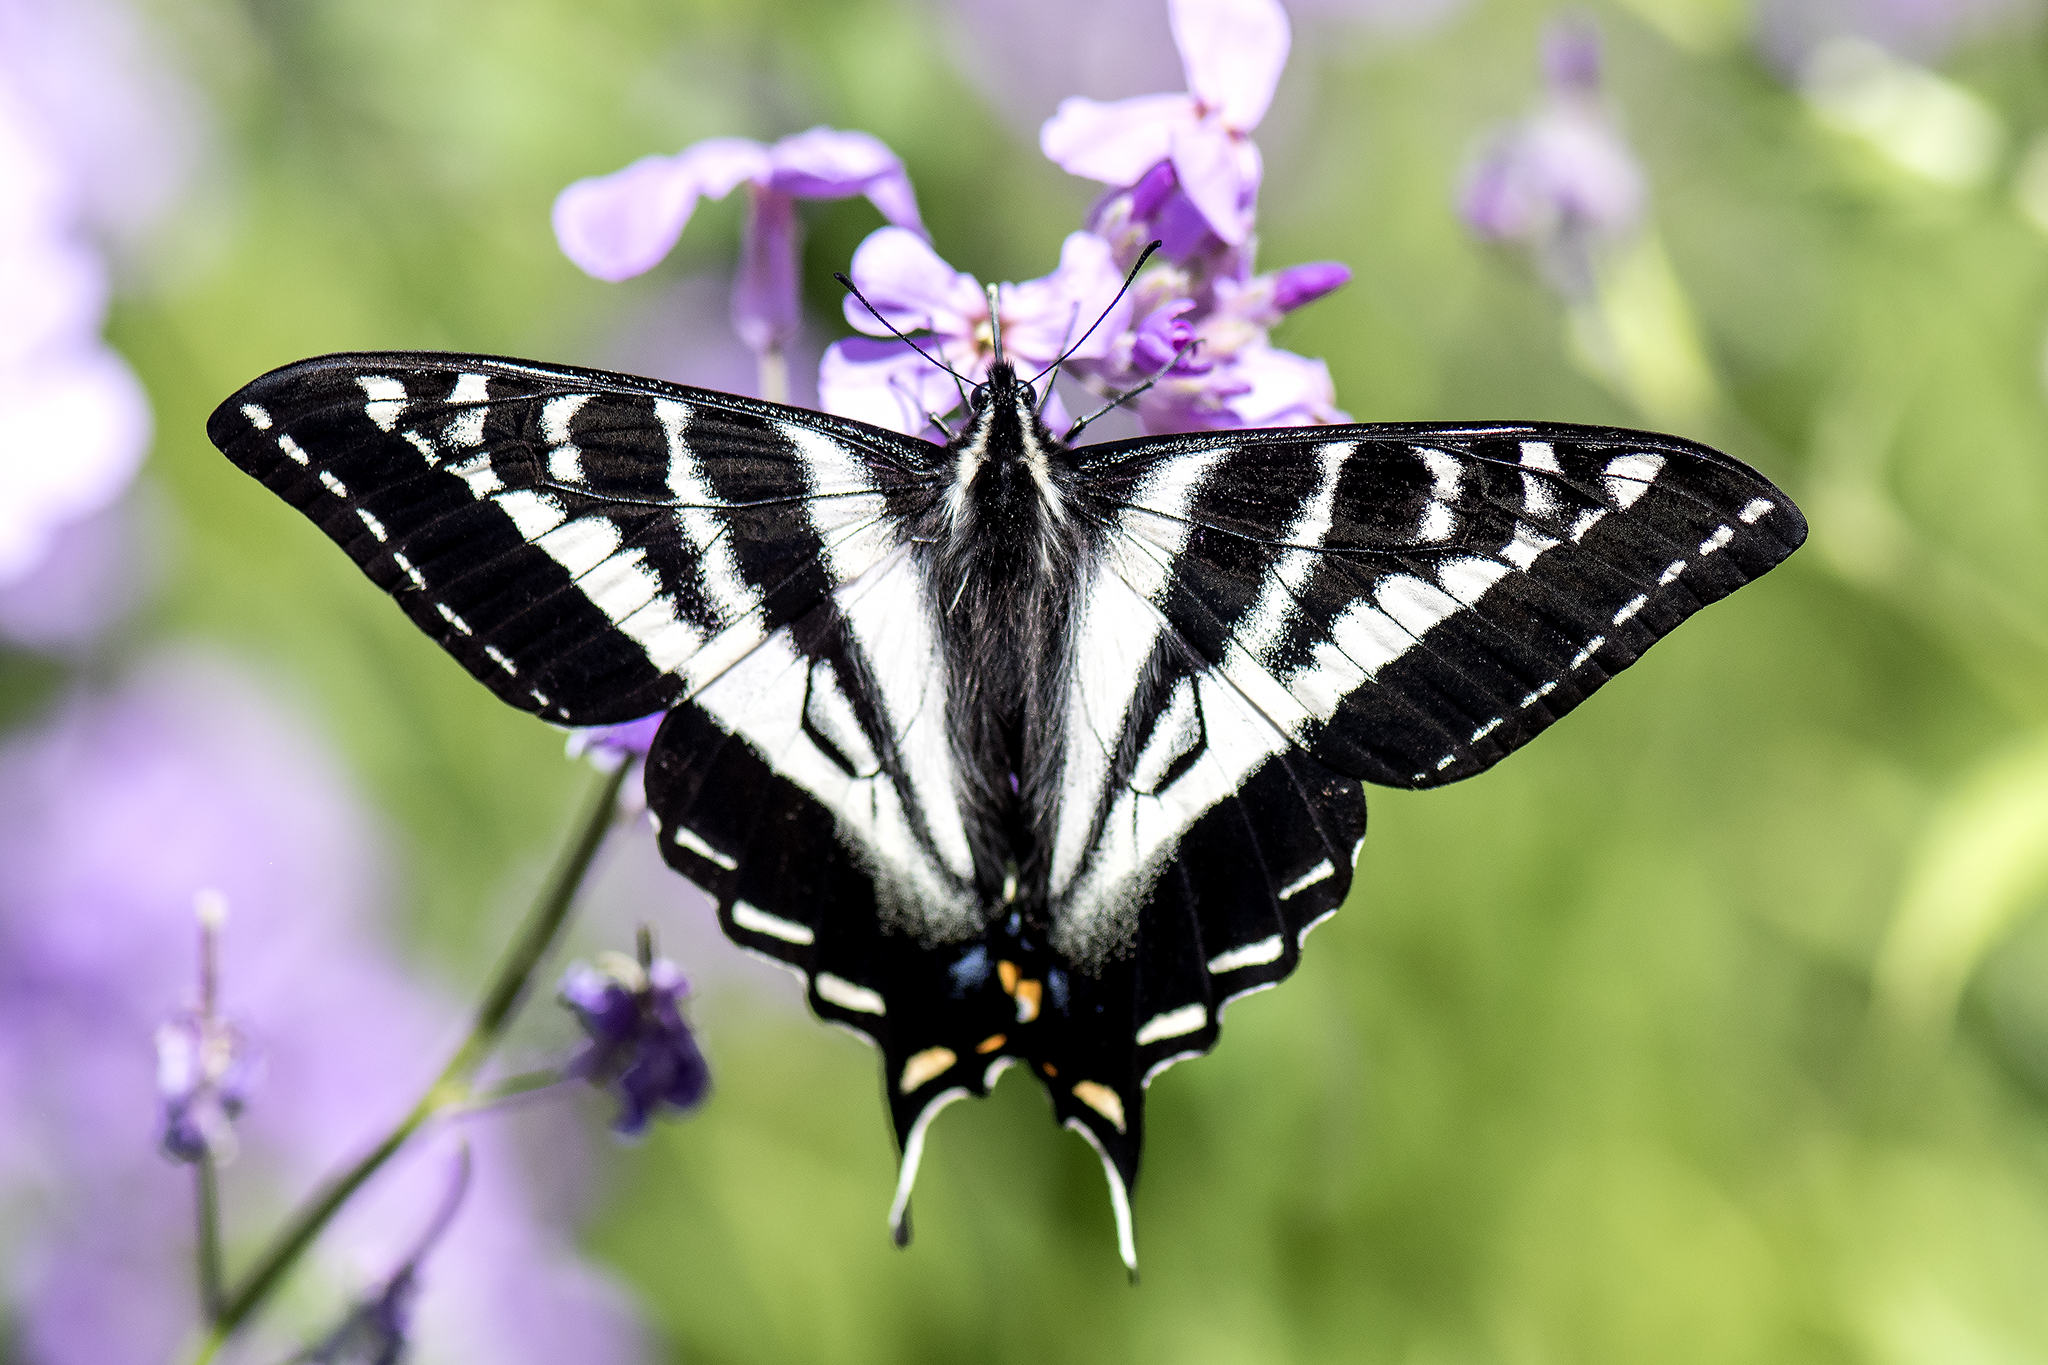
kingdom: Animalia
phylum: Arthropoda
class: Insecta
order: Lepidoptera
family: Papilionidae
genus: Papilio
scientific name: Papilio eurymedon
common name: Pale tiger swallowtail
